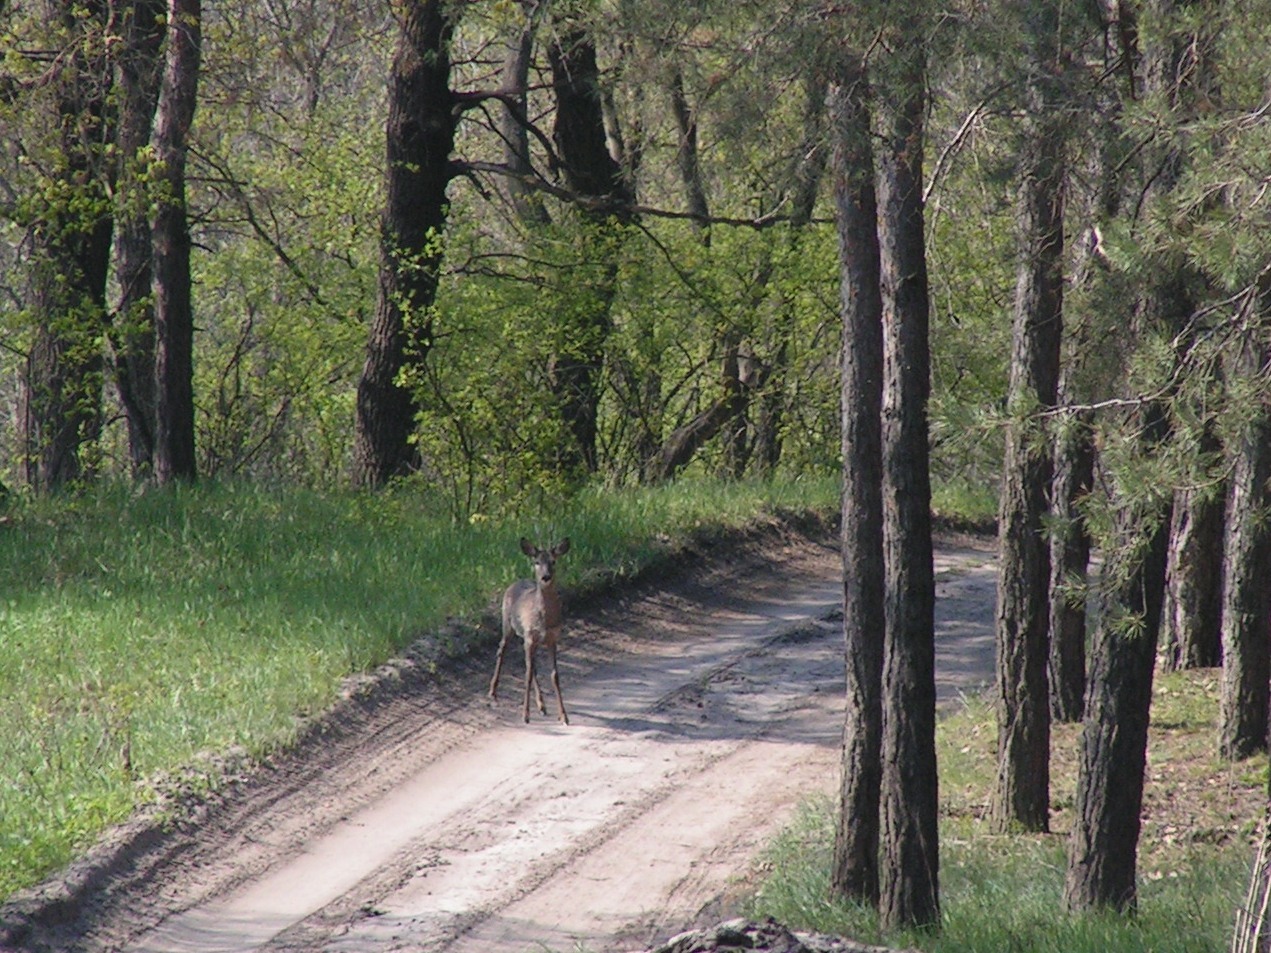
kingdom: Animalia
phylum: Chordata
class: Mammalia
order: Artiodactyla
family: Cervidae
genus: Capreolus
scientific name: Capreolus capreolus
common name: Western roe deer
